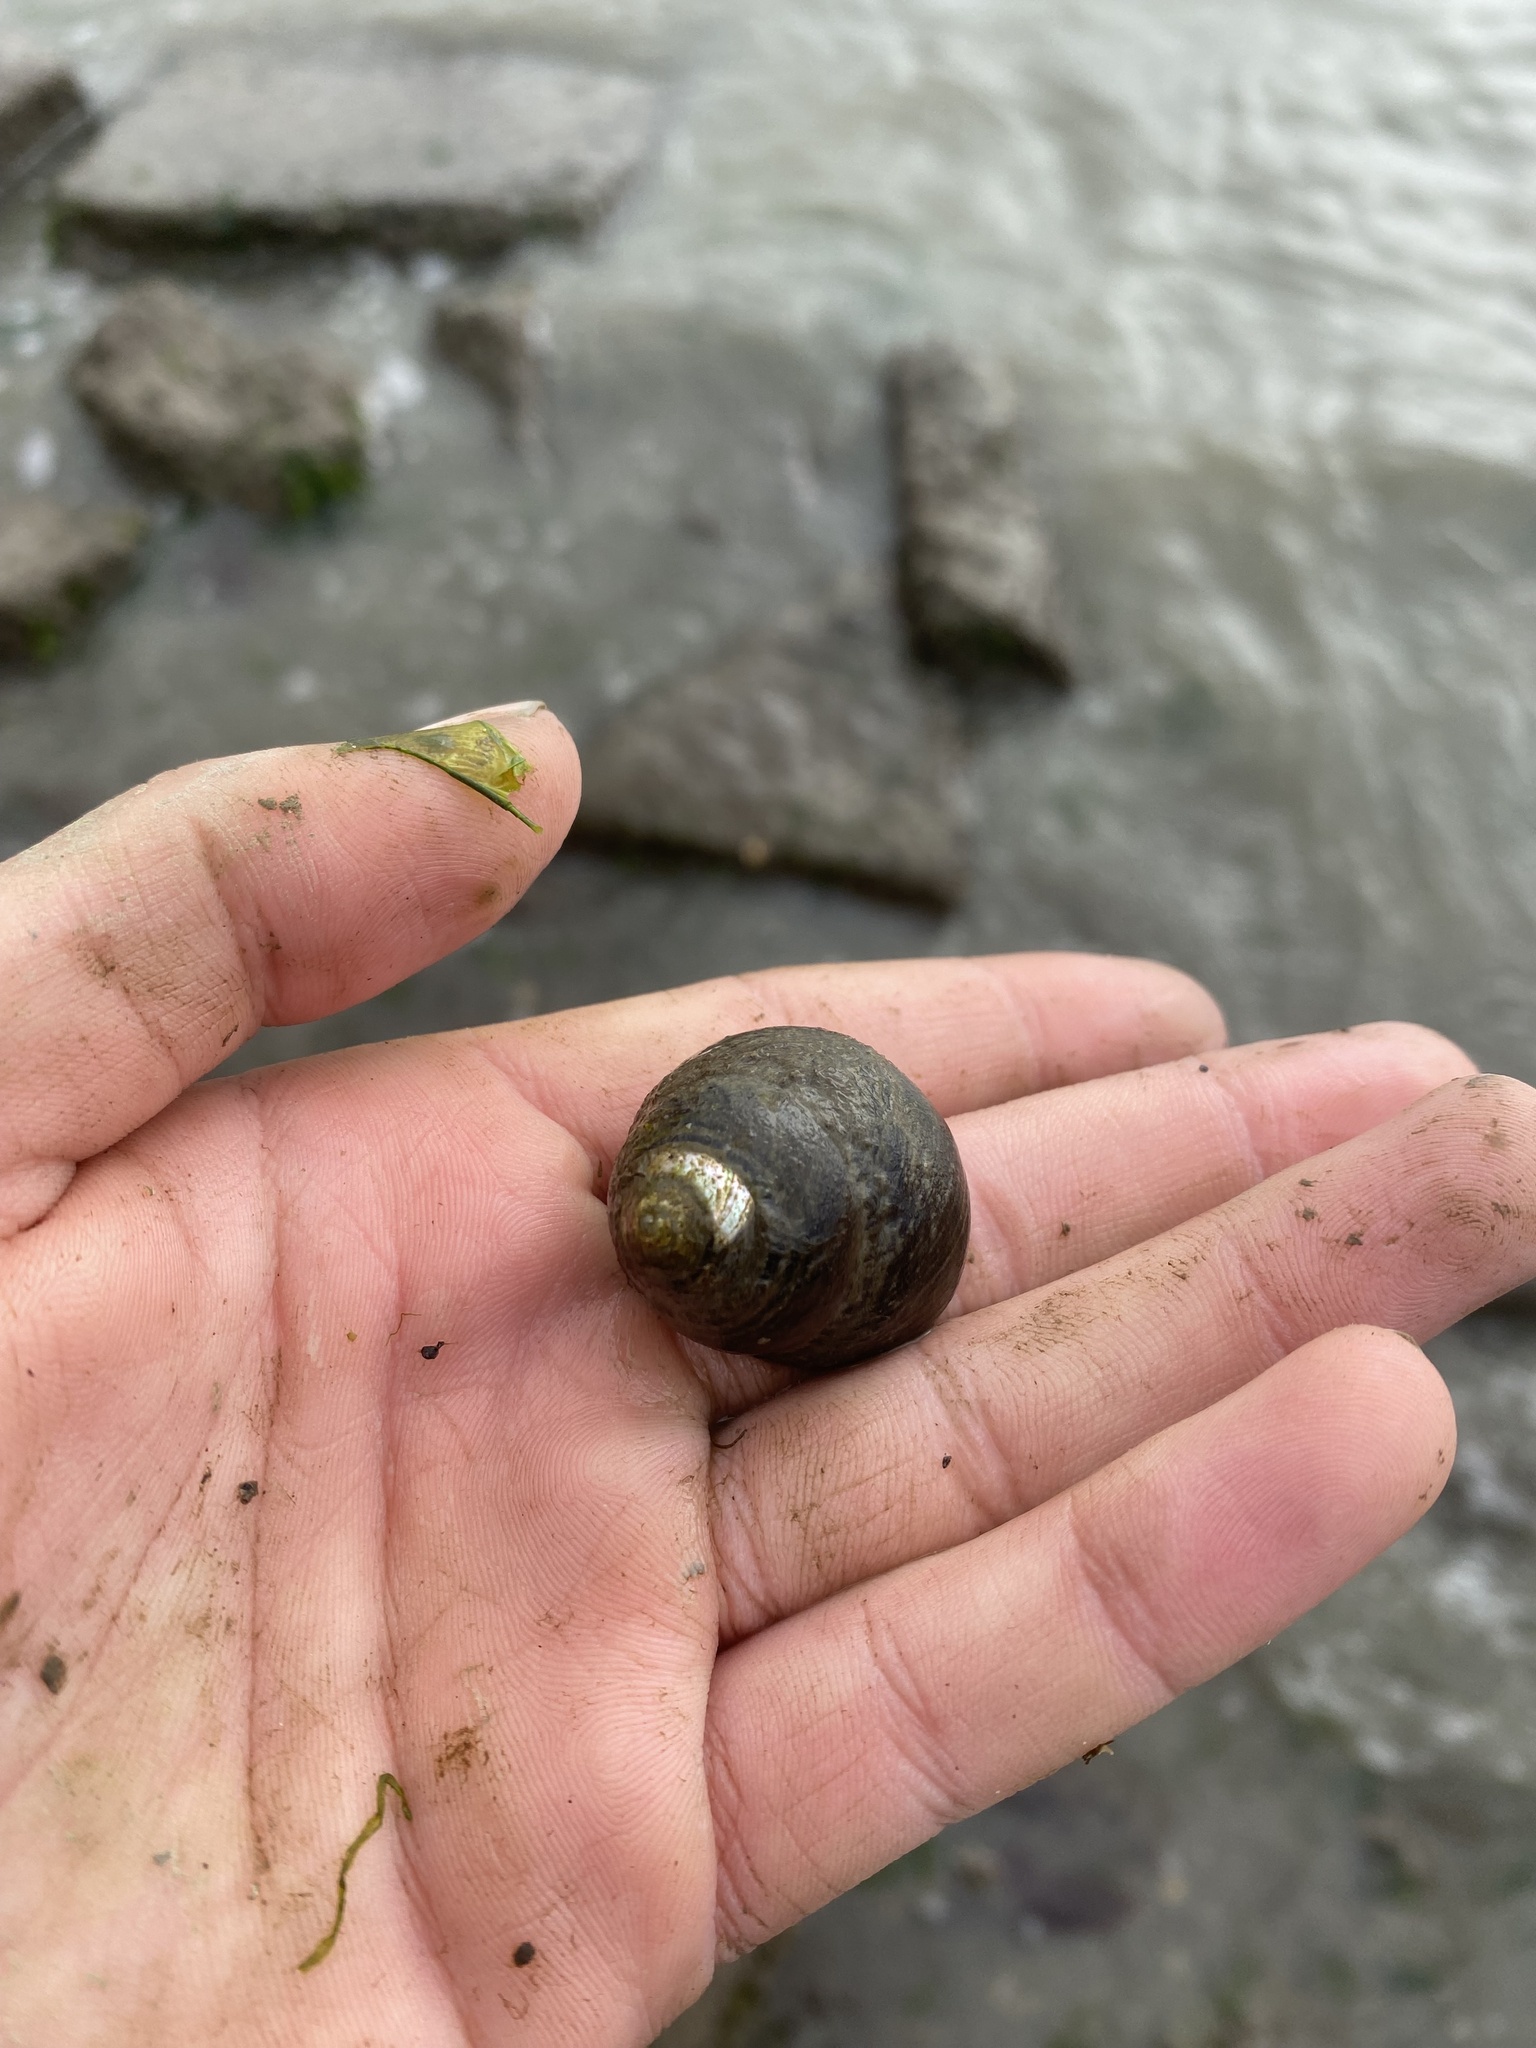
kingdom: Animalia
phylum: Mollusca
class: Gastropoda
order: Trochida
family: Tegulidae
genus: Tegula
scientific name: Tegula funebralis
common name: Black tegula
